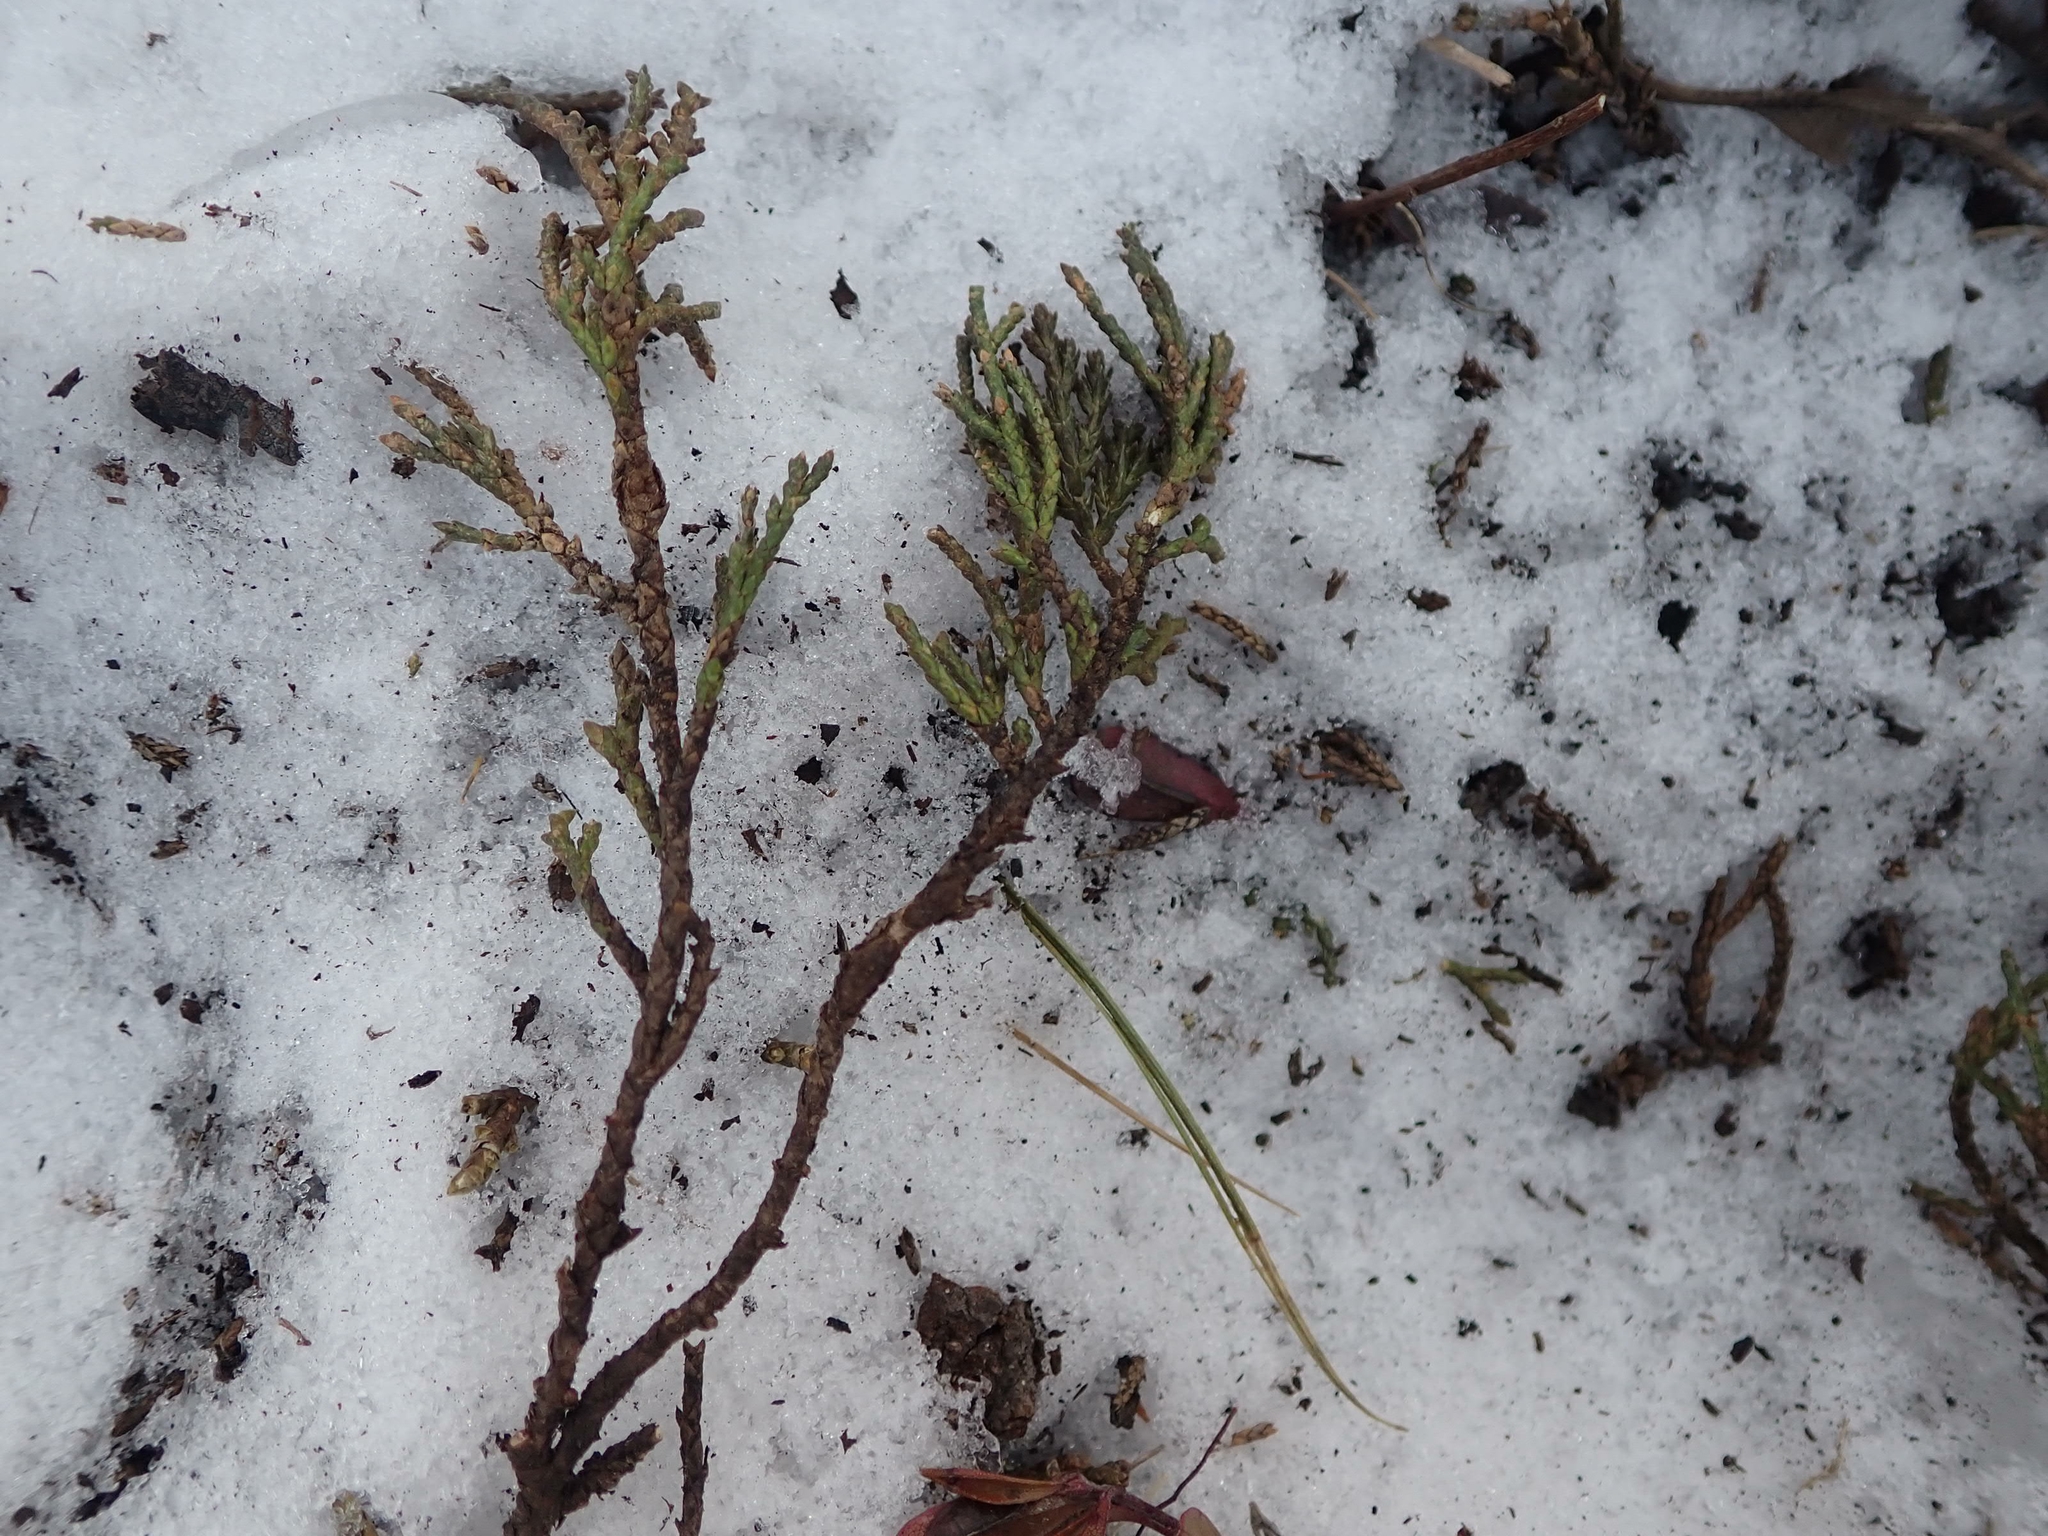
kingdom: Plantae
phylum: Tracheophyta
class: Pinopsida
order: Pinales
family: Cupressaceae
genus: Juniperus
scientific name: Juniperus horizontalis
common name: Creeping juniper
